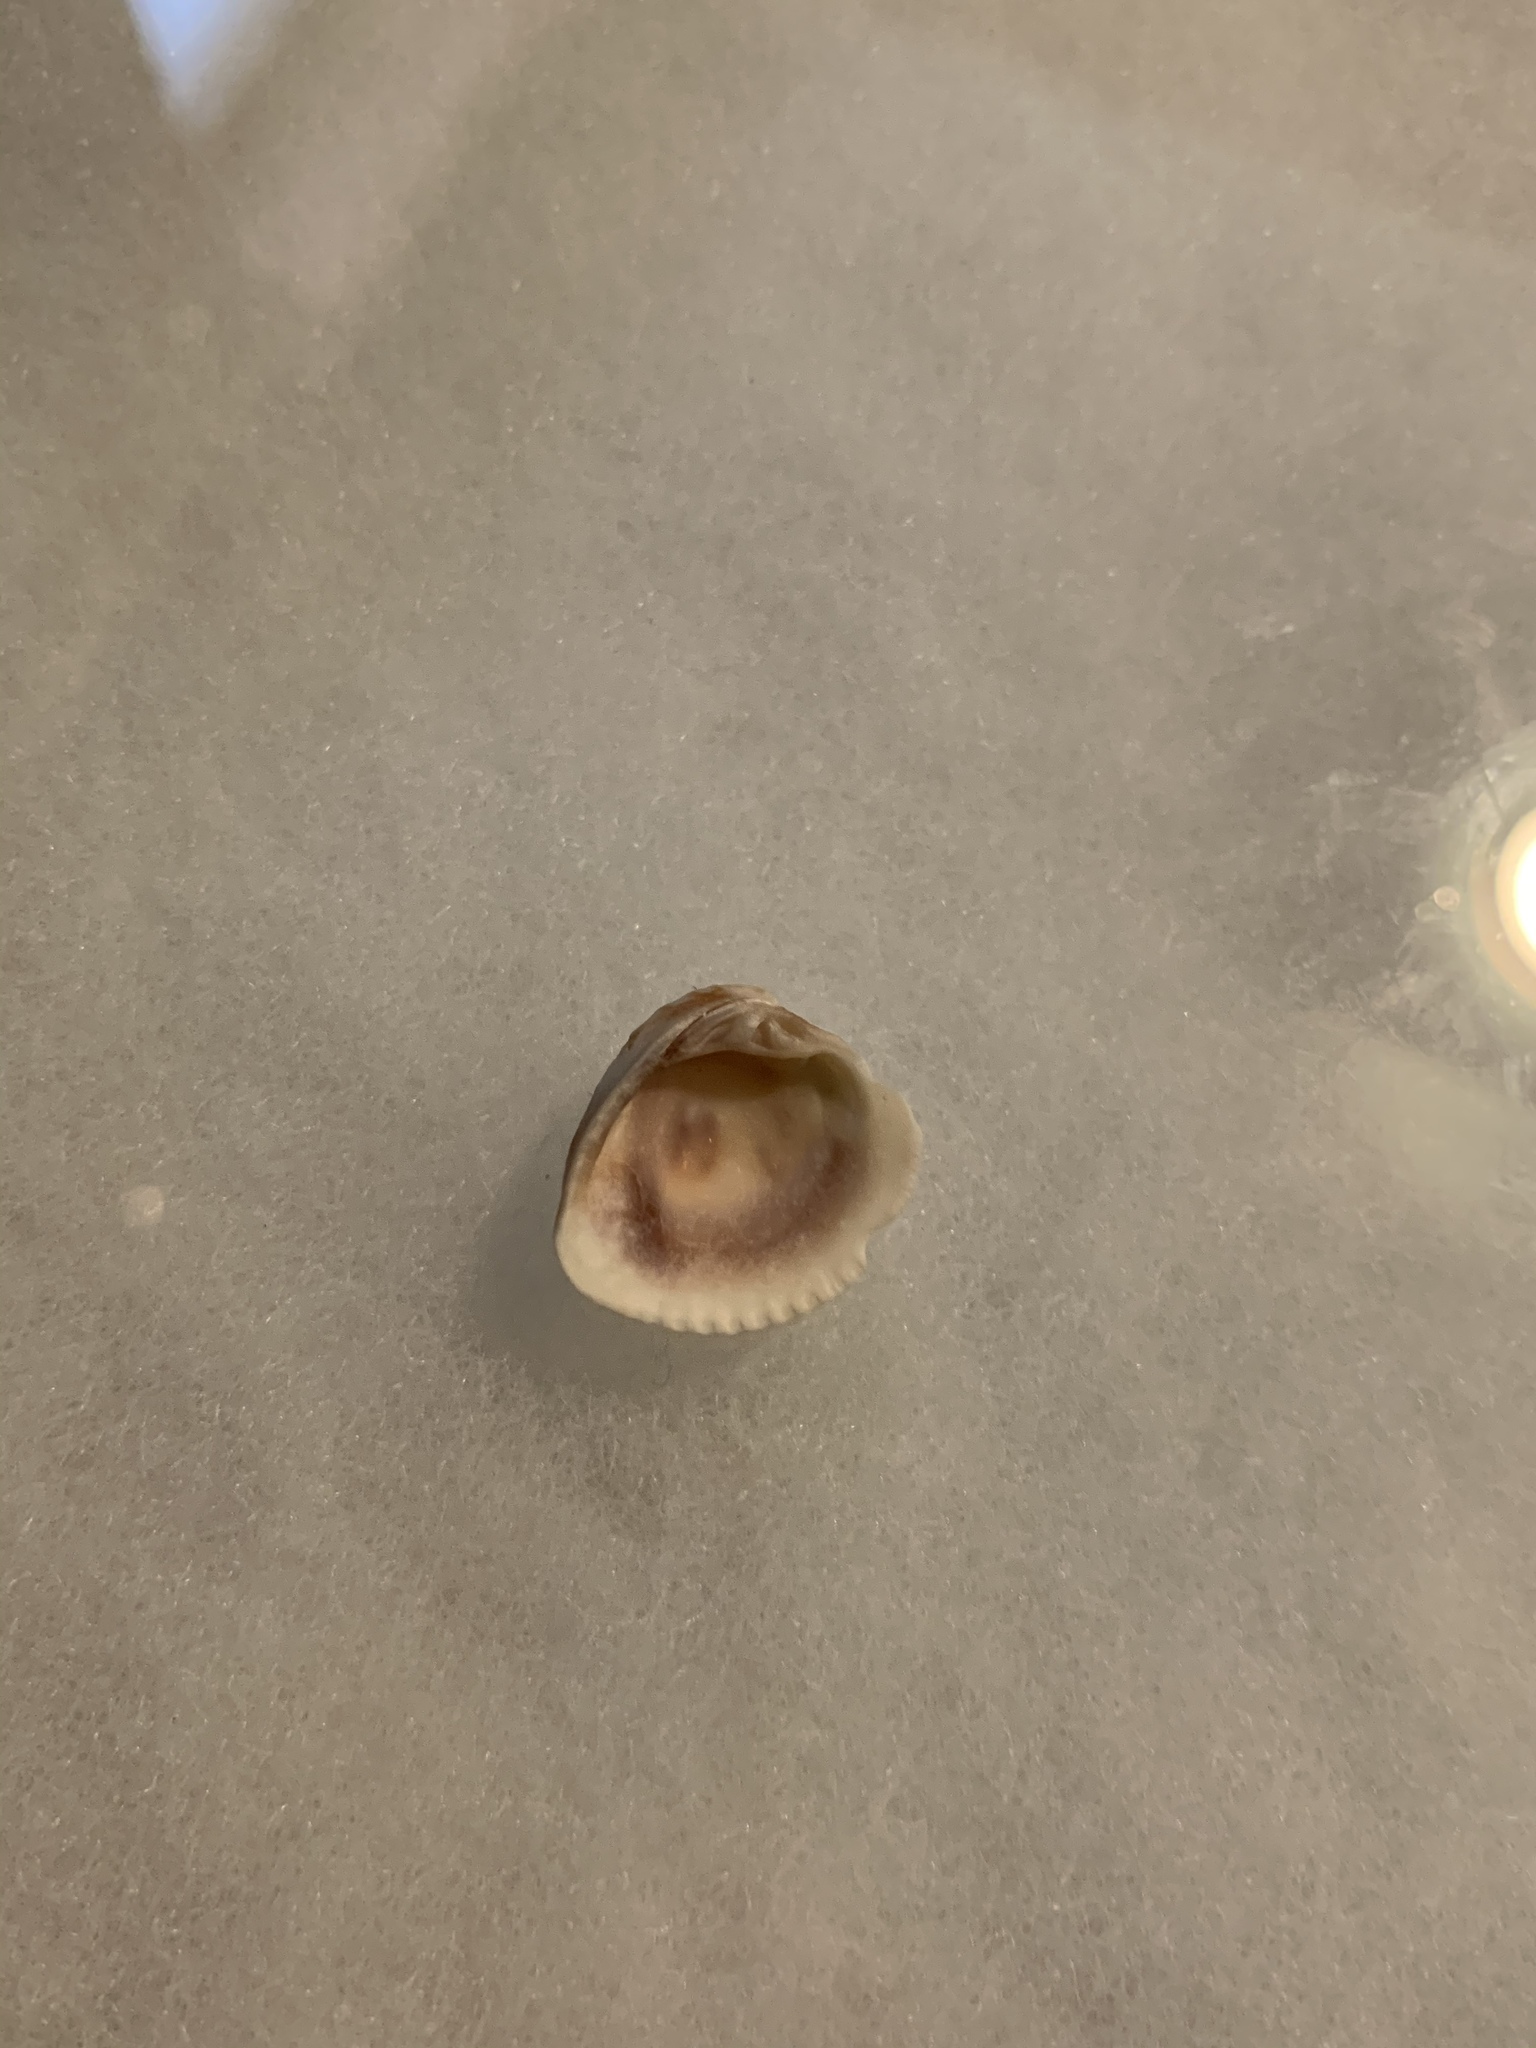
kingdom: Animalia
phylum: Mollusca
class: Bivalvia
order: Venerida
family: Veneridae
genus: Chione
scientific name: Chione elevata
